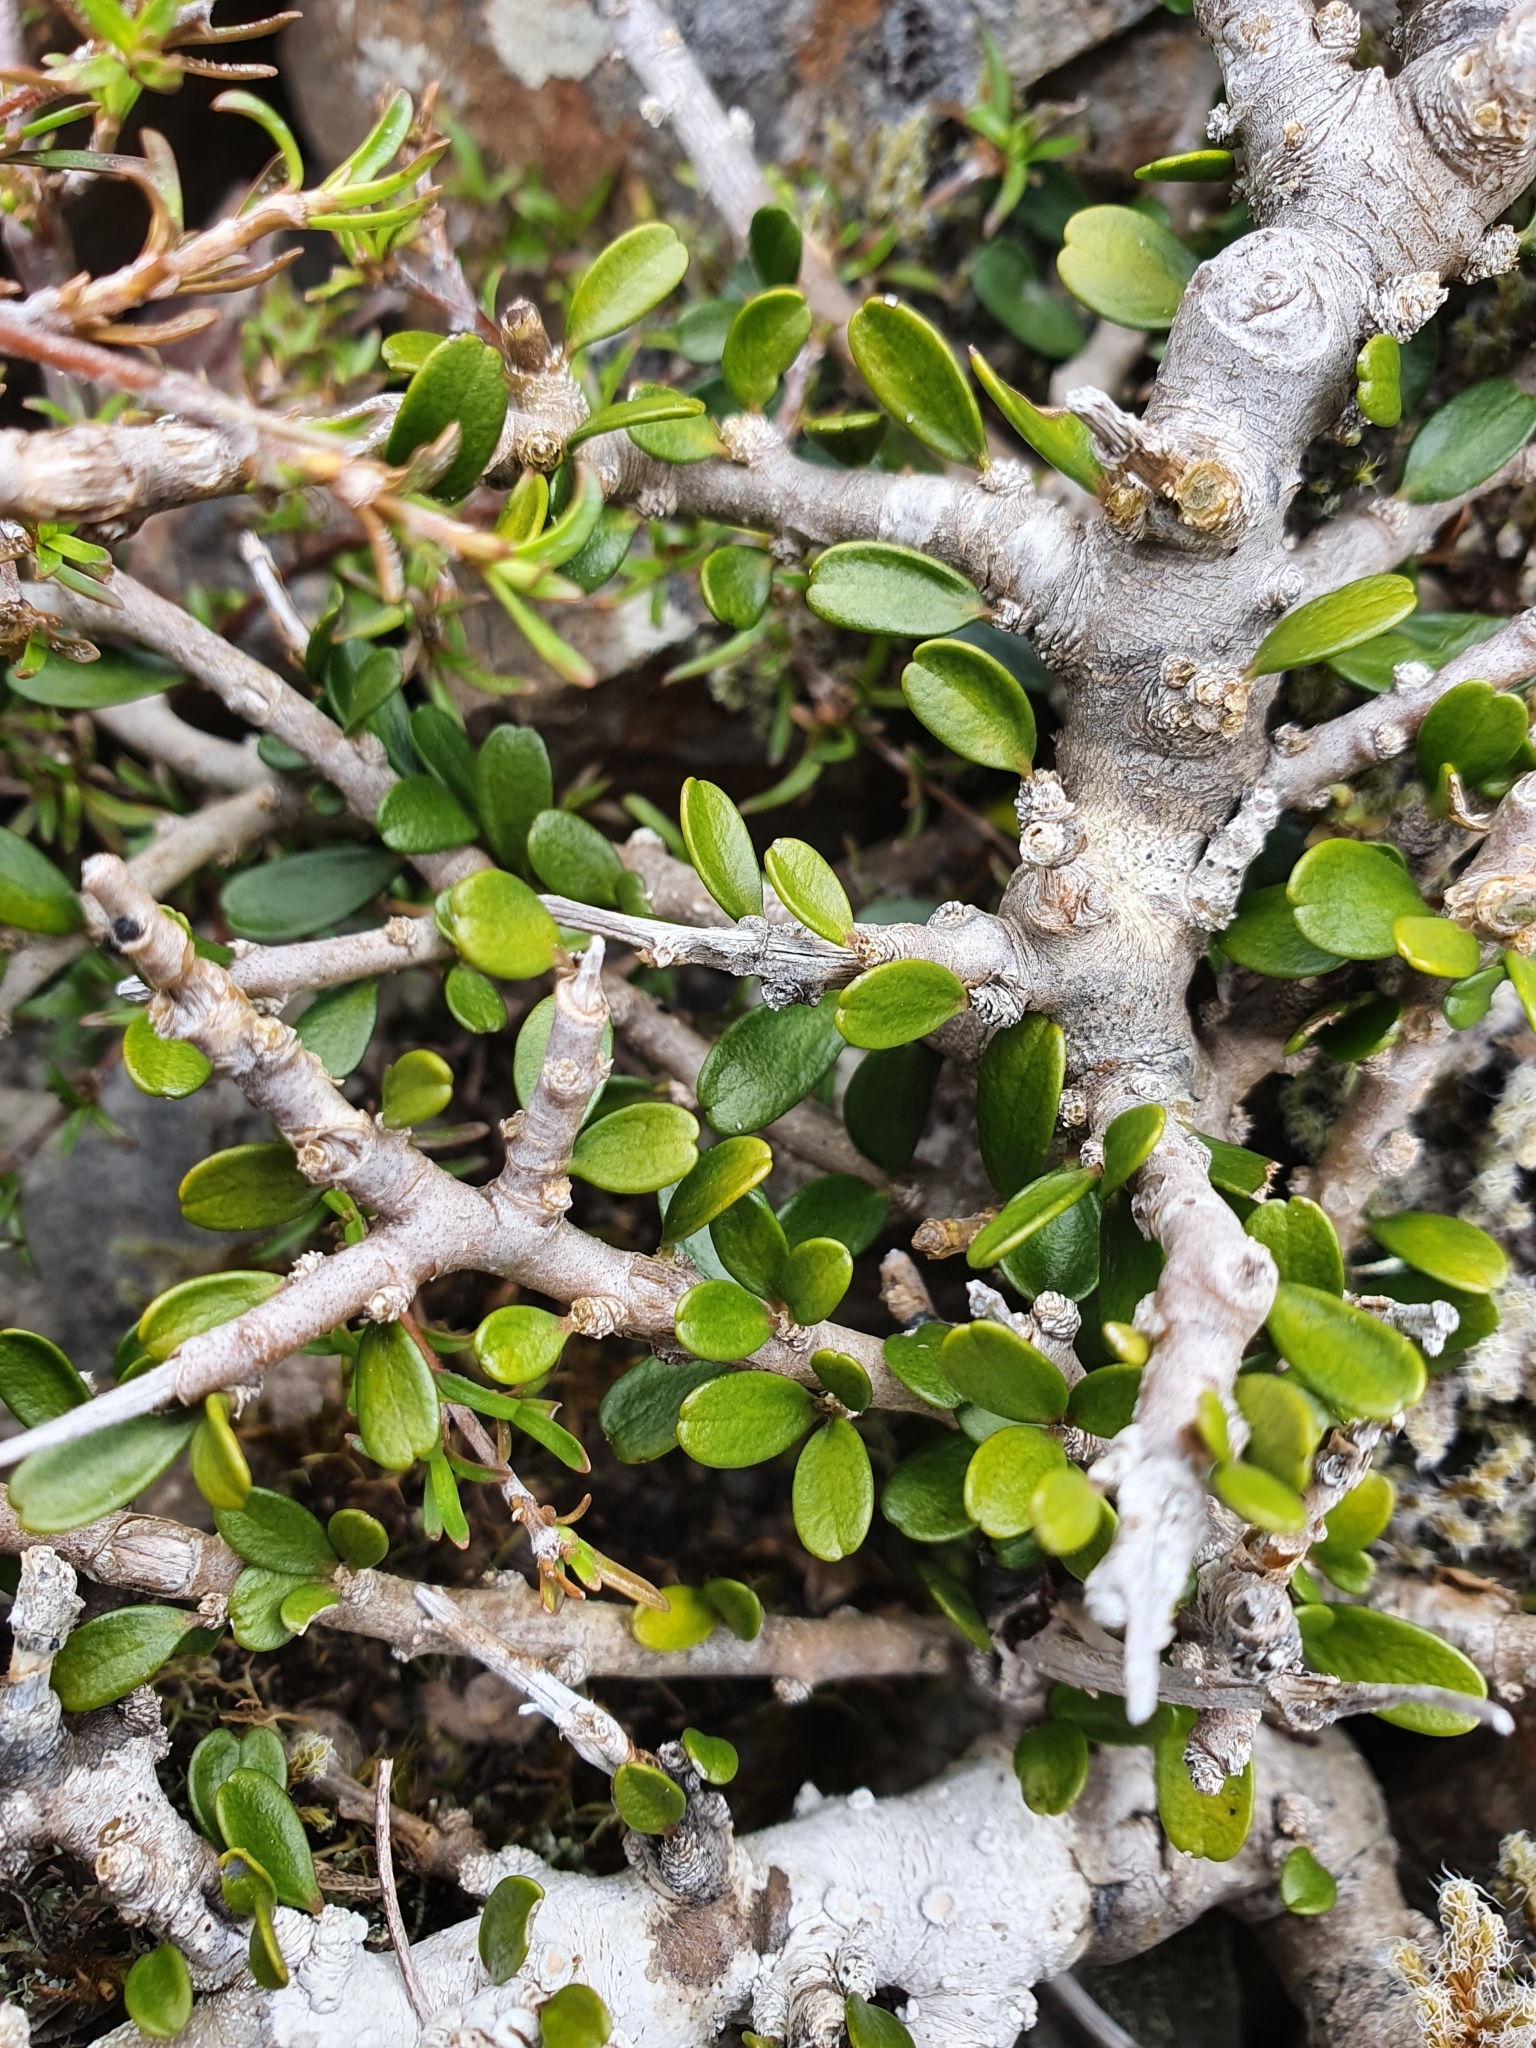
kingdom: Plantae
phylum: Tracheophyta
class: Magnoliopsida
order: Malpighiales
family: Violaceae
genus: Melicytus
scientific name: Melicytus alpinus
